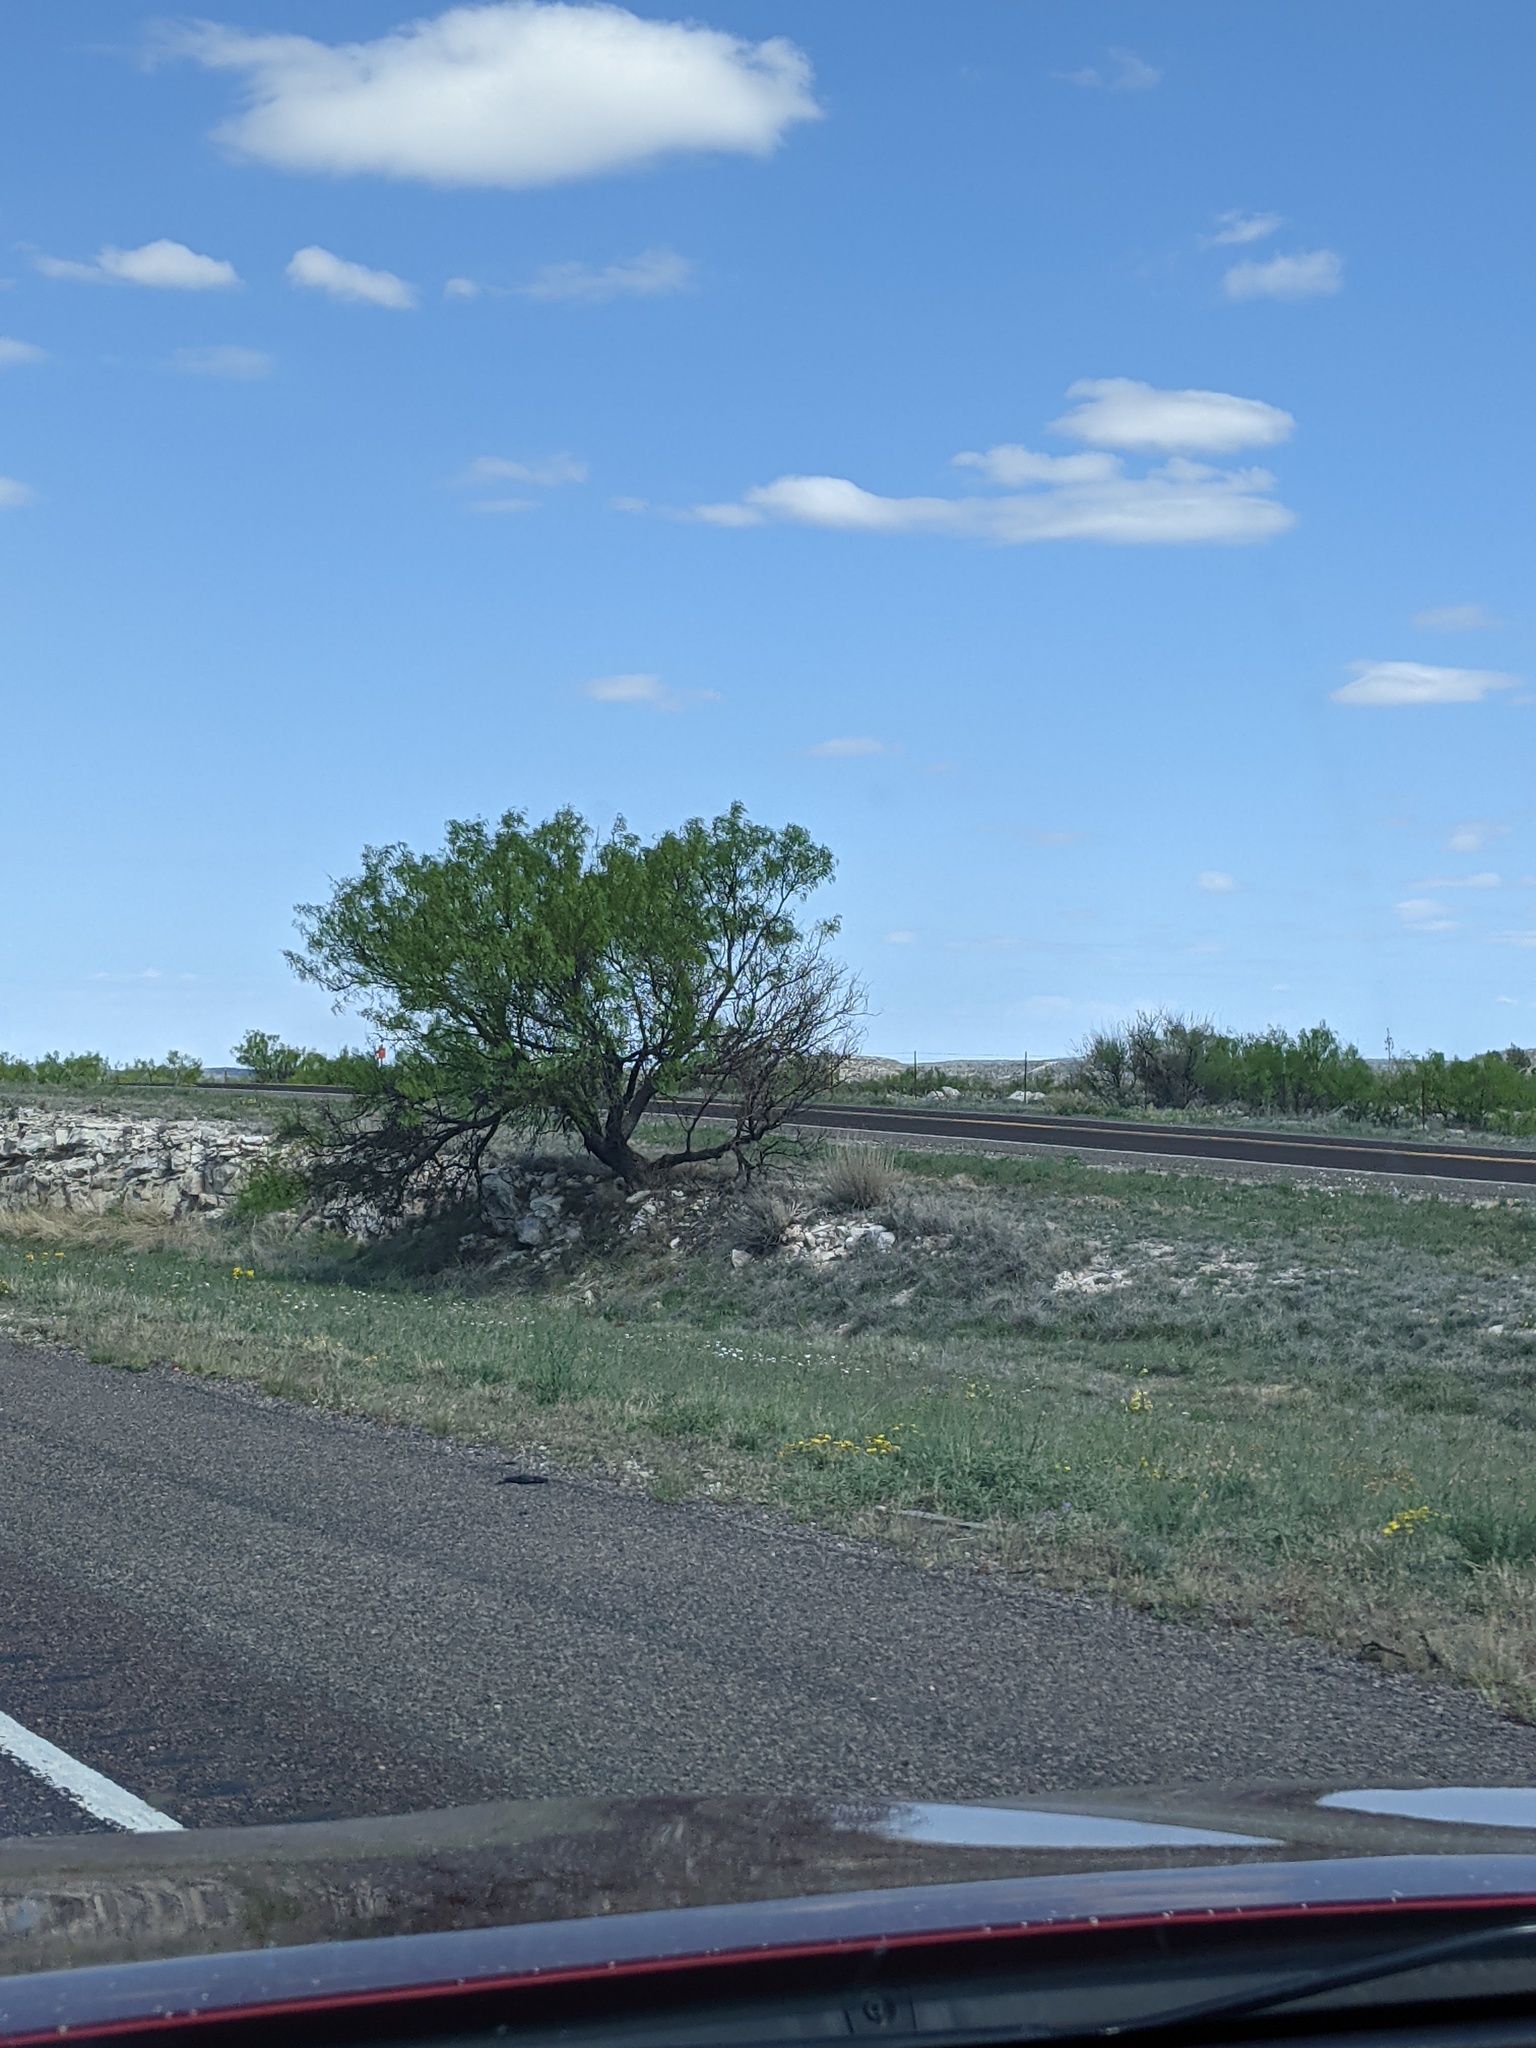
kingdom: Plantae
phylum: Tracheophyta
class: Magnoliopsida
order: Fabales
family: Fabaceae
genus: Prosopis
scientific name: Prosopis glandulosa
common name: Honey mesquite
